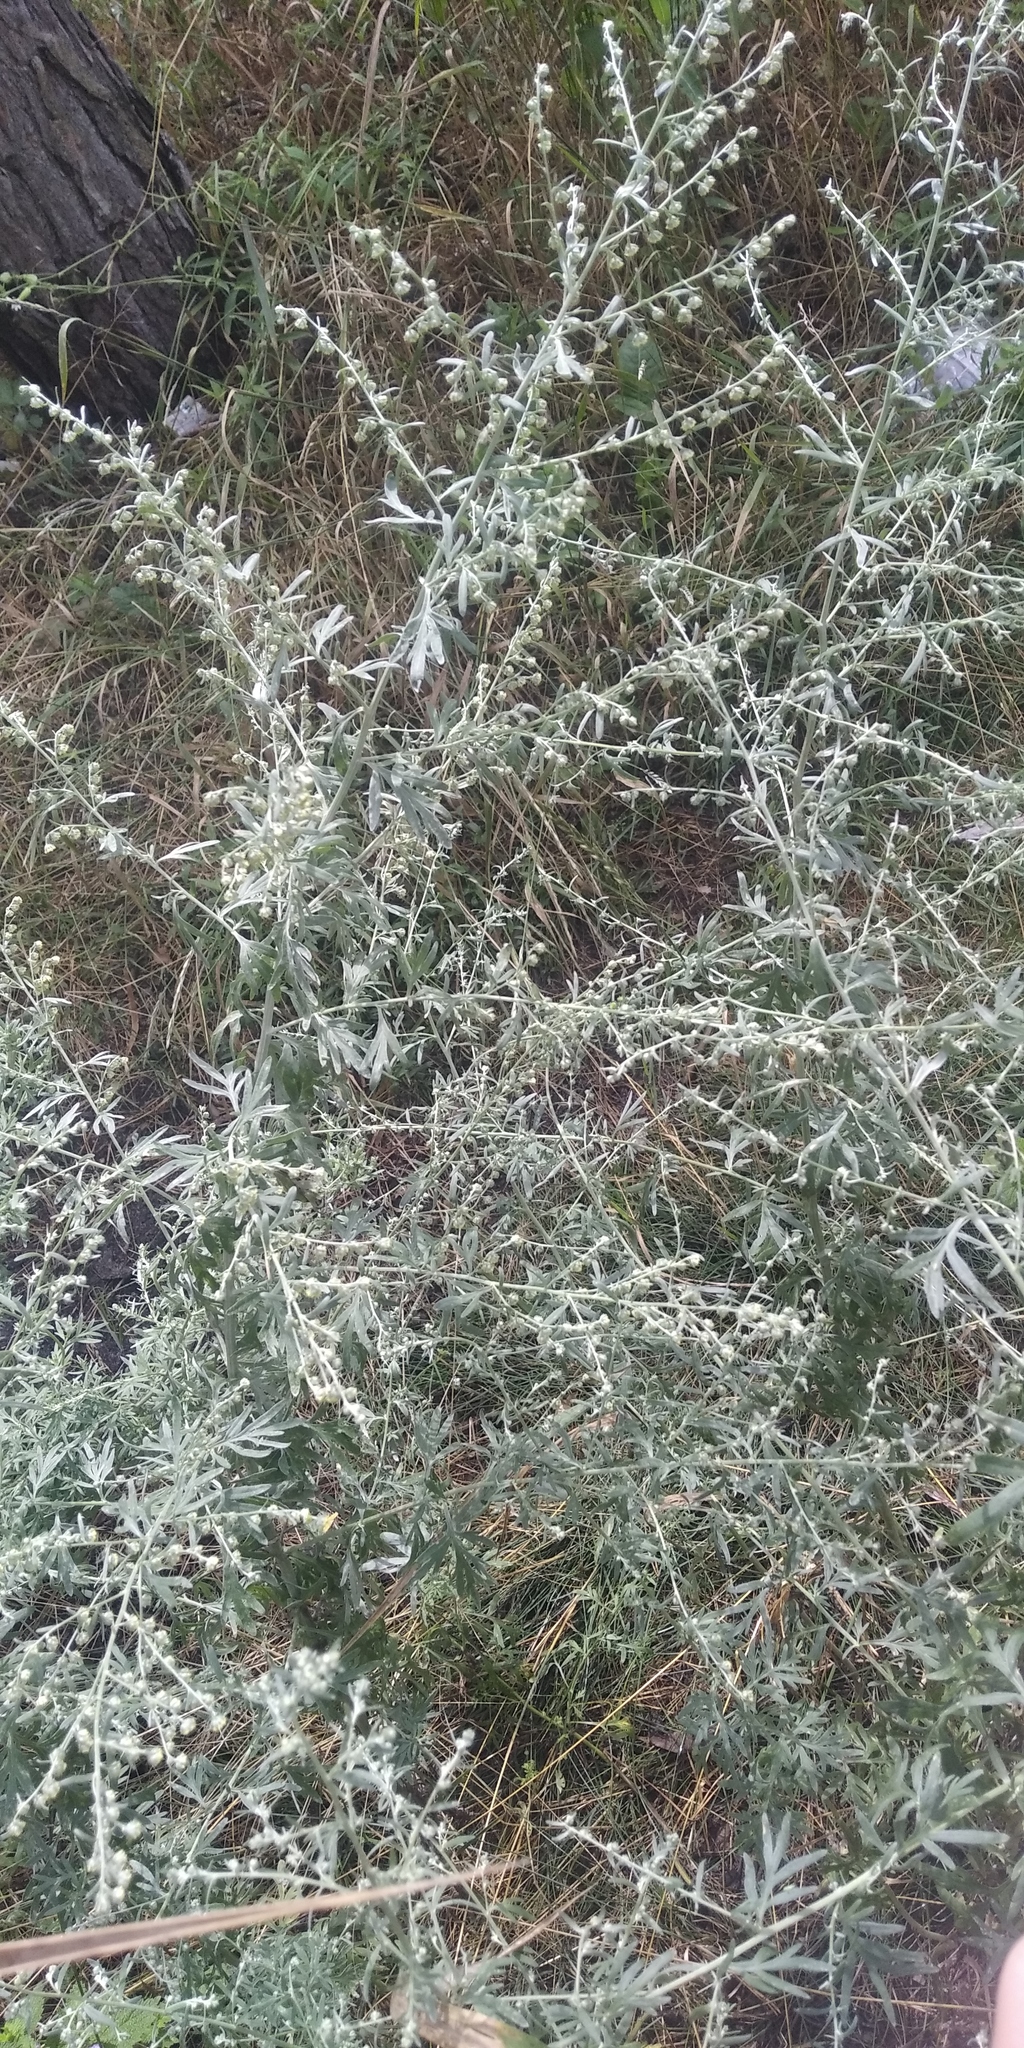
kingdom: Plantae
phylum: Tracheophyta
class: Magnoliopsida
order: Asterales
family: Asteraceae
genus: Artemisia
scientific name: Artemisia absinthium
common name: Wormwood
